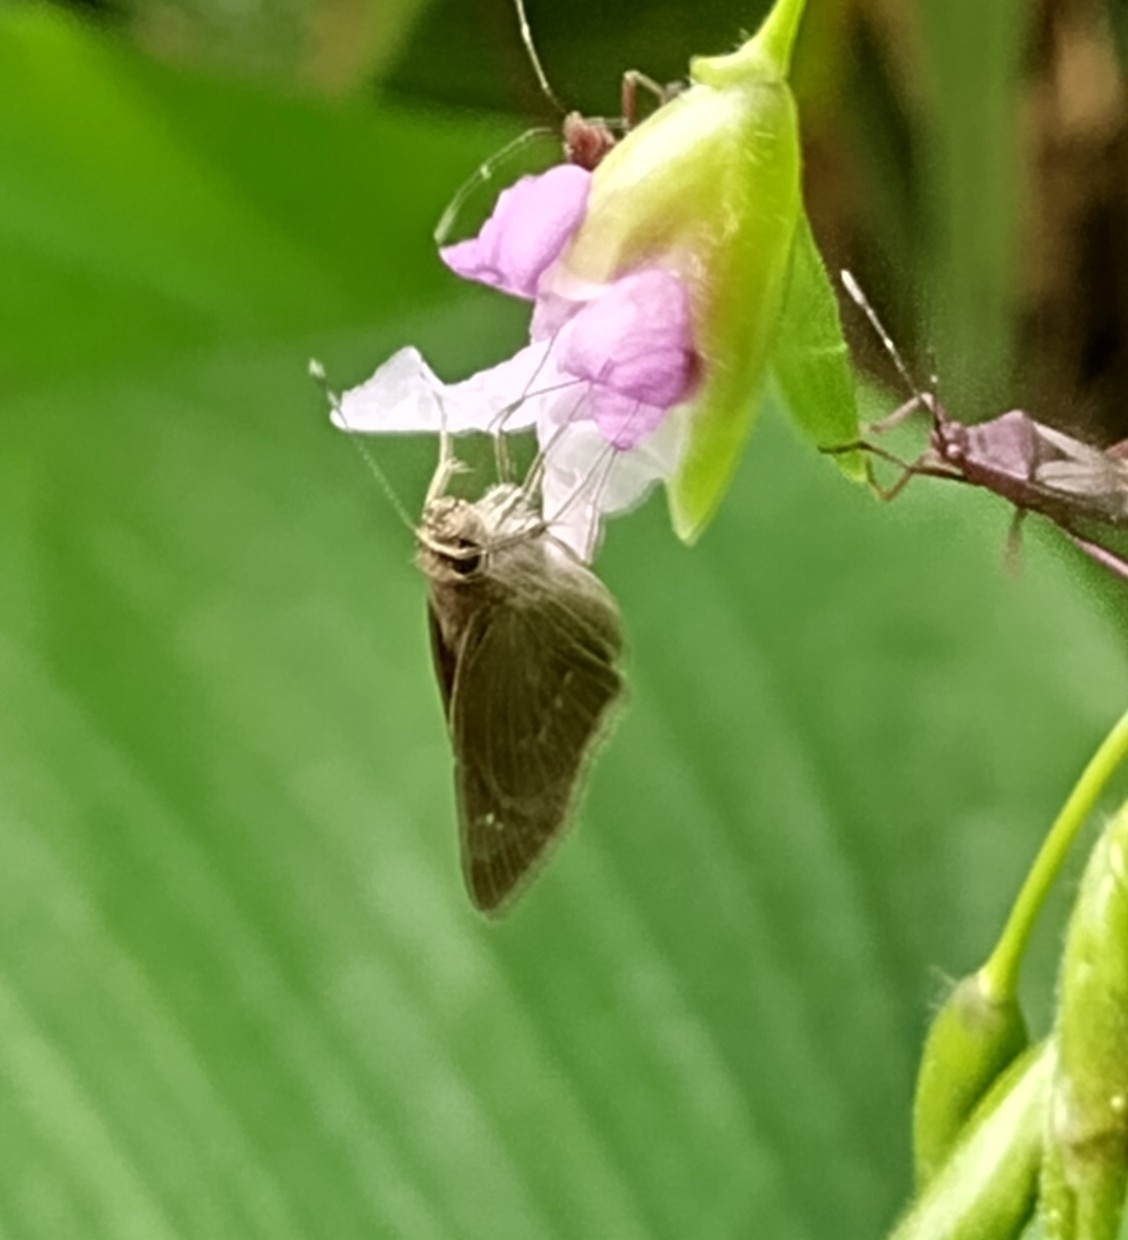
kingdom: Animalia
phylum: Arthropoda
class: Insecta
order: Lepidoptera
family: Hesperiidae
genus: Cymaenes
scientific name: Cymaenes tripunctus
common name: Dingy dotted skipper
